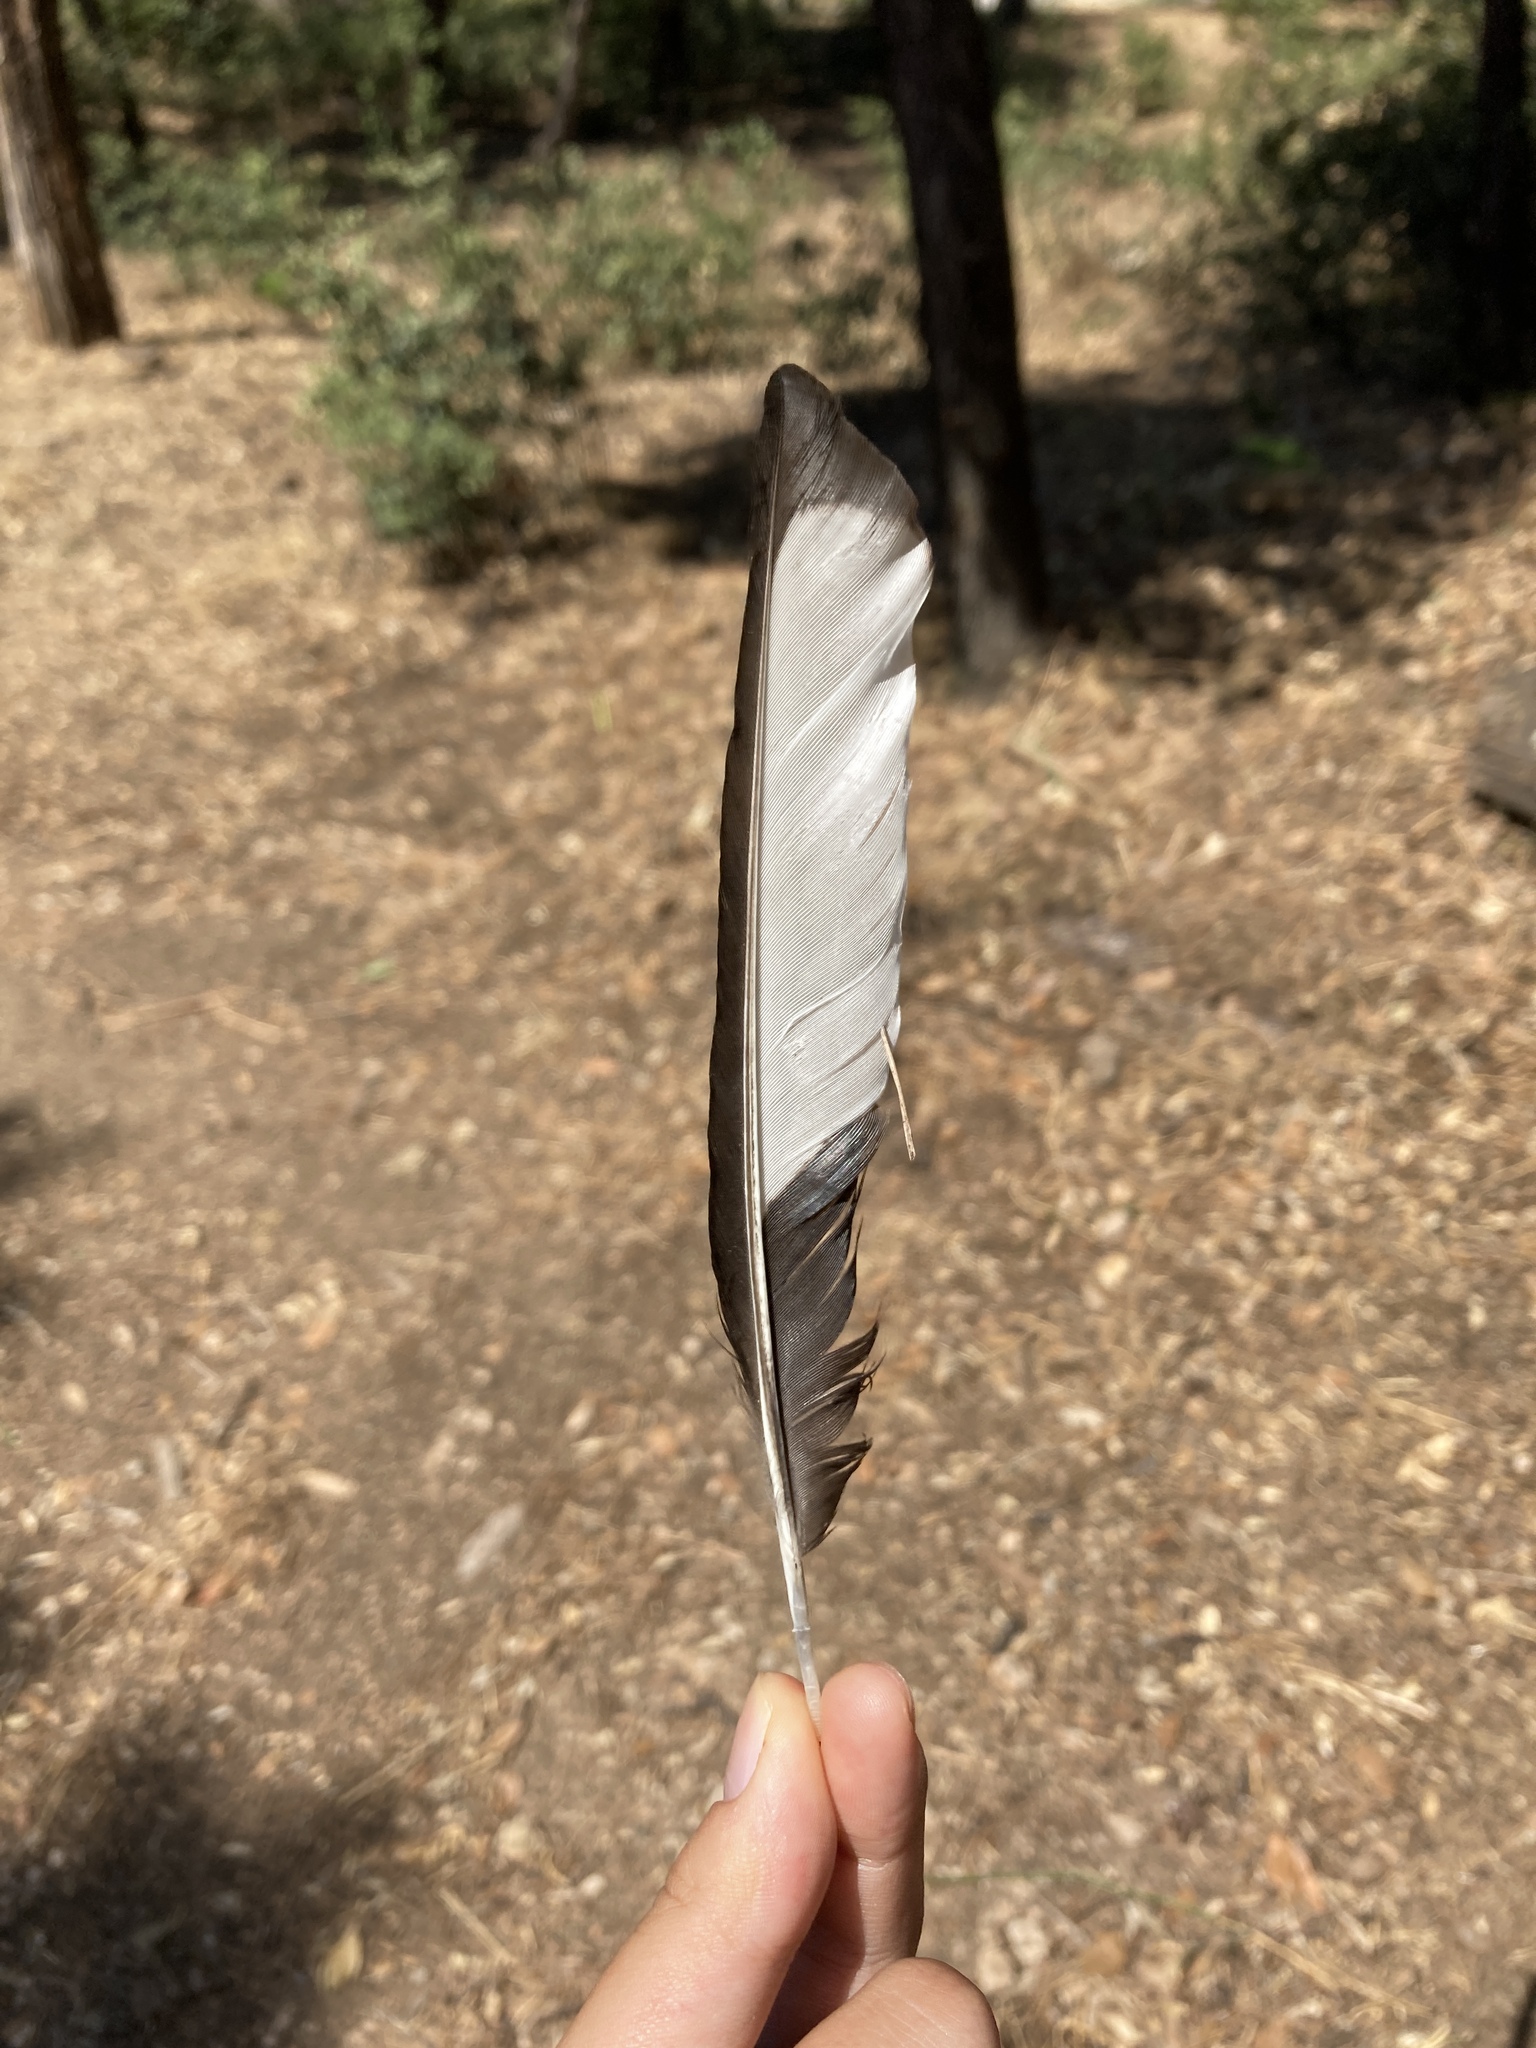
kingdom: Animalia
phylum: Chordata
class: Aves
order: Passeriformes
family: Corvidae
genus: Pica
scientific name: Pica pica
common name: Eurasian magpie
